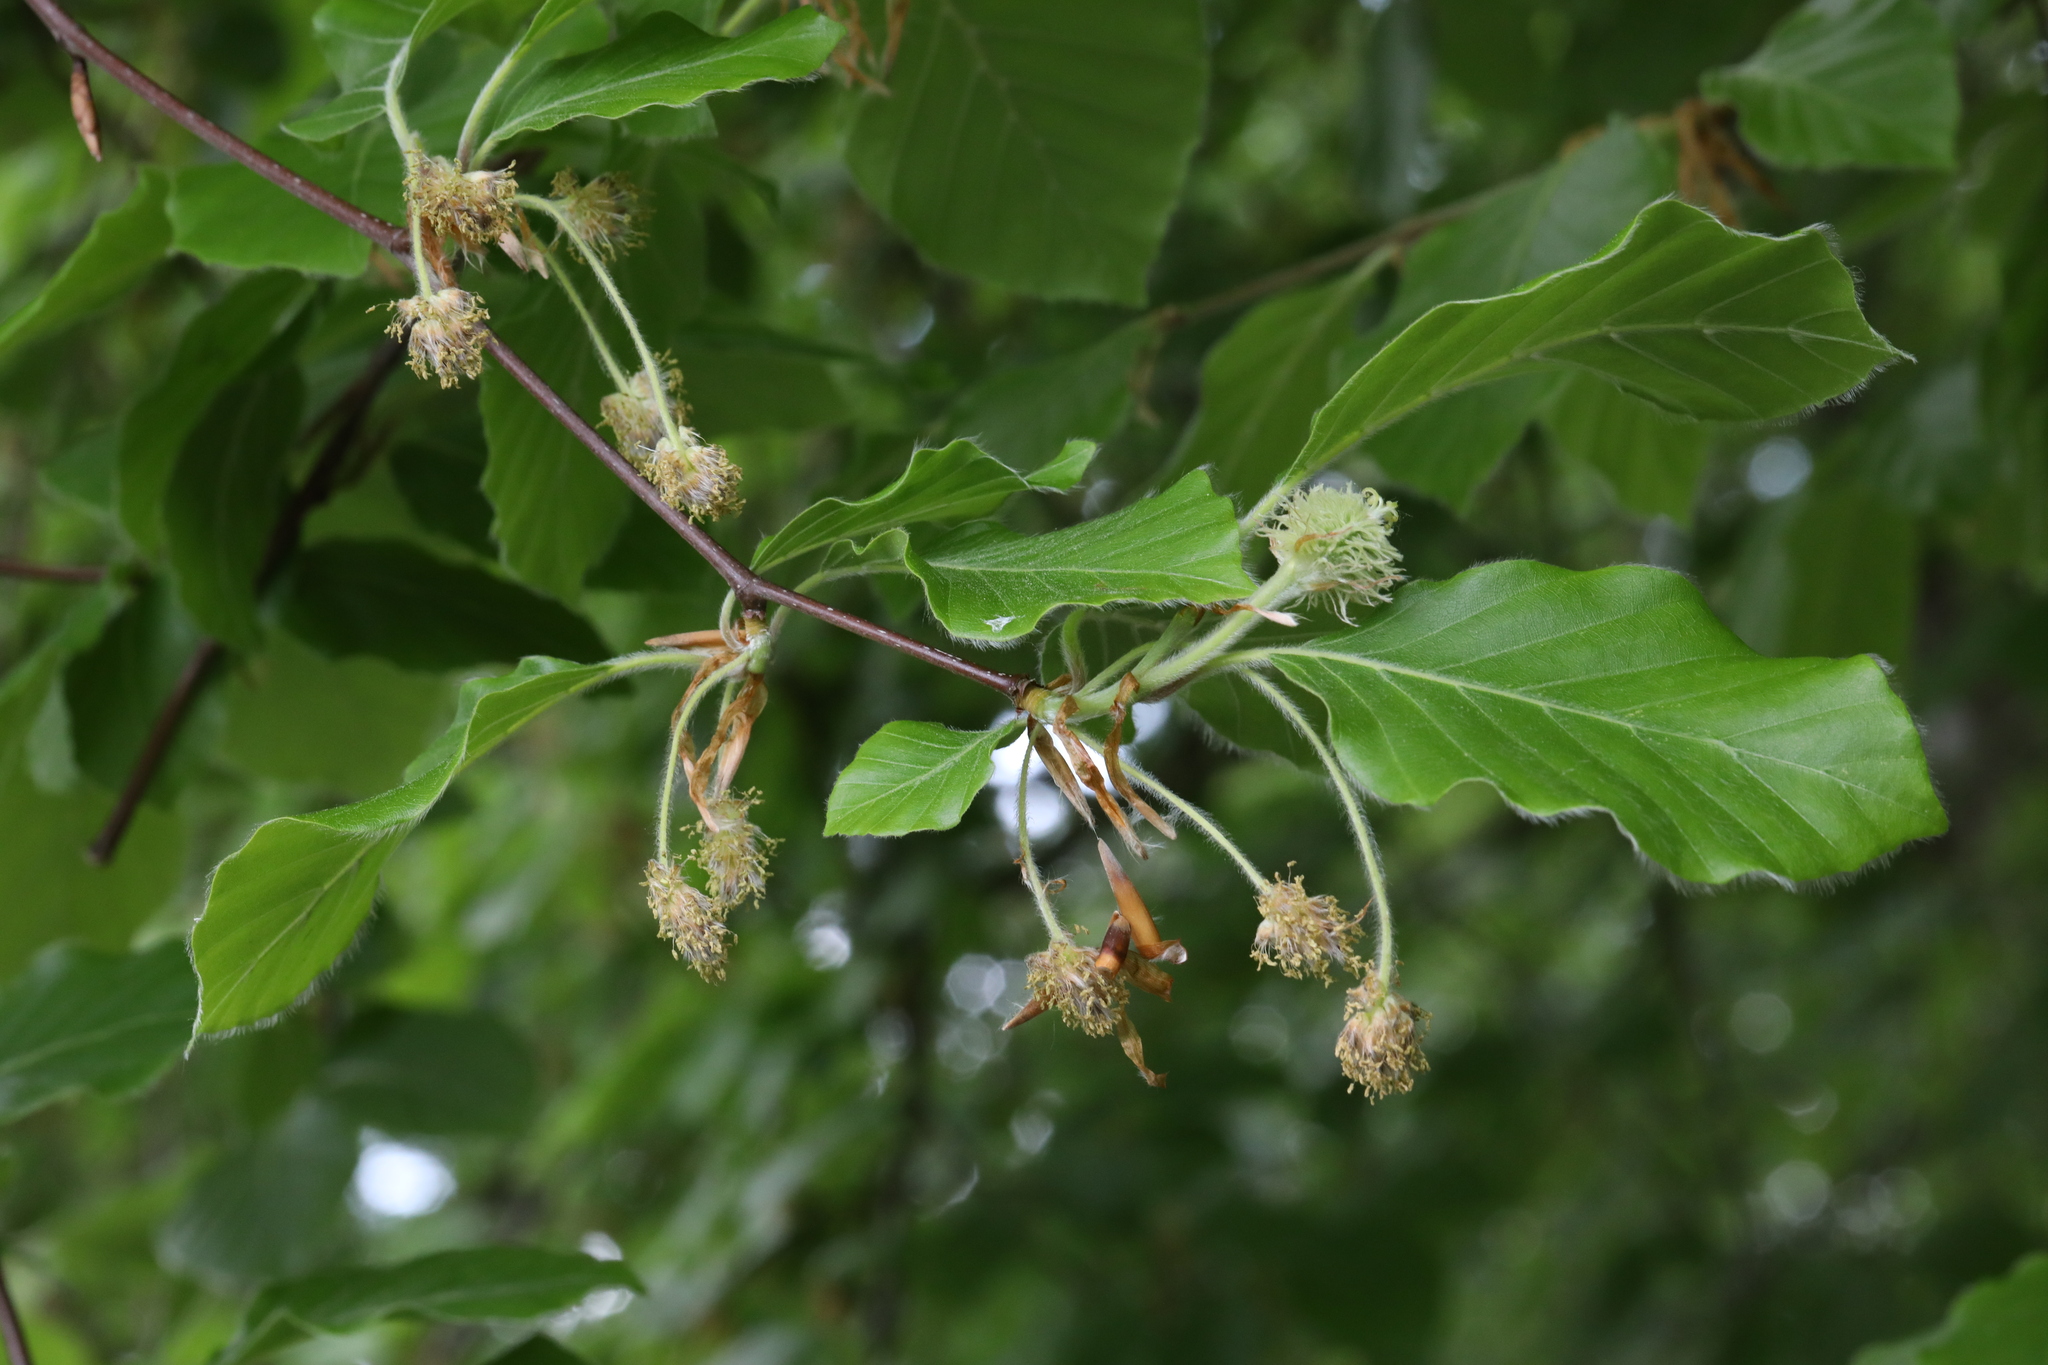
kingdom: Plantae
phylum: Tracheophyta
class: Magnoliopsida
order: Fagales
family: Fagaceae
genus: Fagus
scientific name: Fagus sylvatica
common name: Beech
